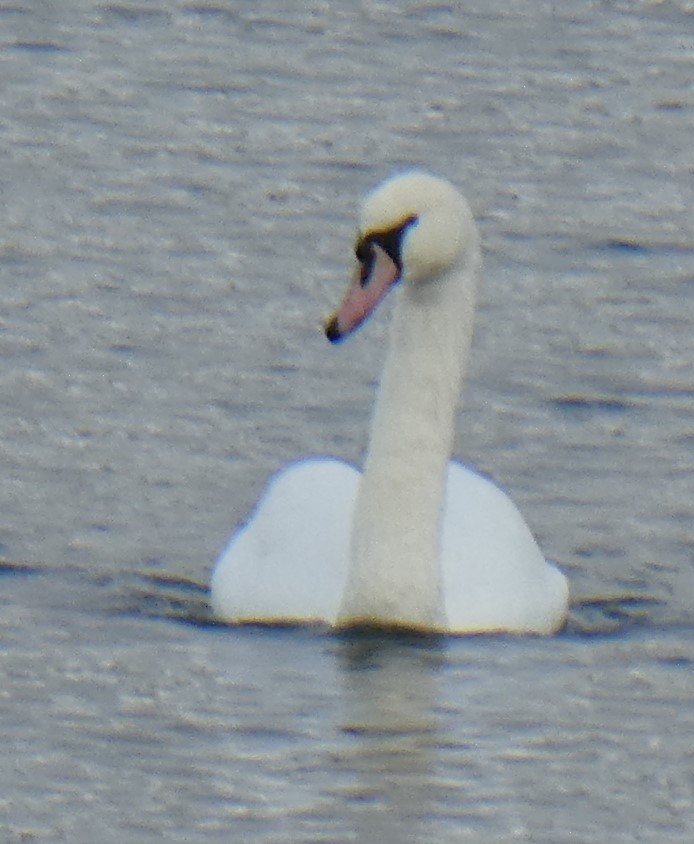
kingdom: Animalia
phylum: Chordata
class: Aves
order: Anseriformes
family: Anatidae
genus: Cygnus
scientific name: Cygnus olor
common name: Mute swan
